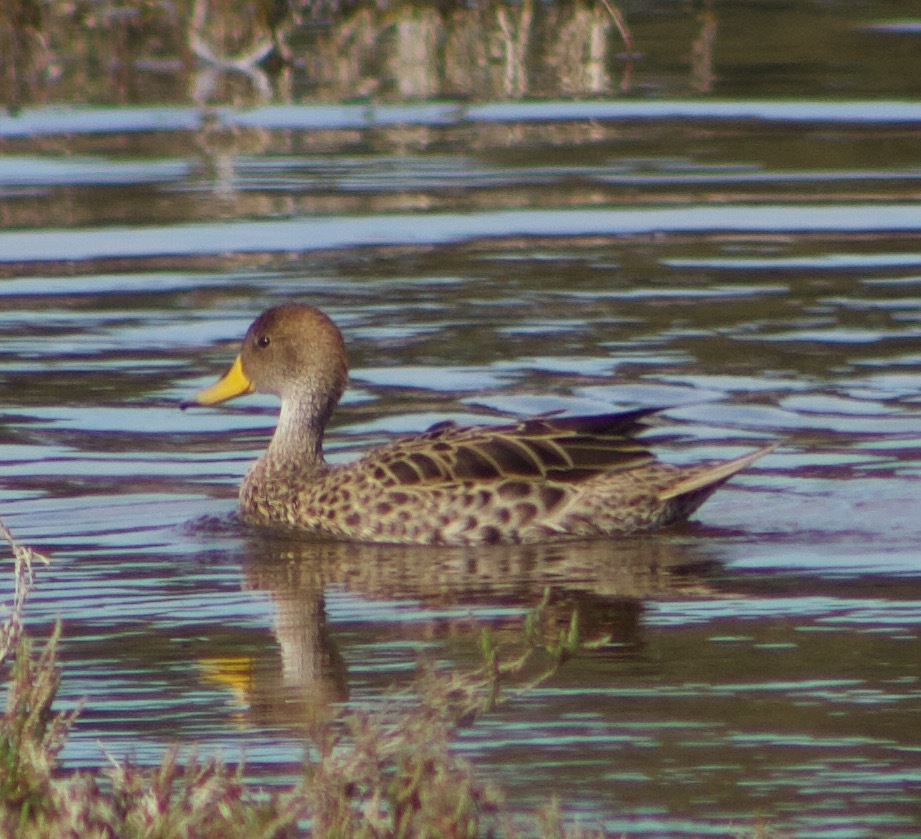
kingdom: Animalia
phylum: Chordata
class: Aves
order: Anseriformes
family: Anatidae
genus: Anas
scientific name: Anas georgica
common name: Yellow-billed pintail
